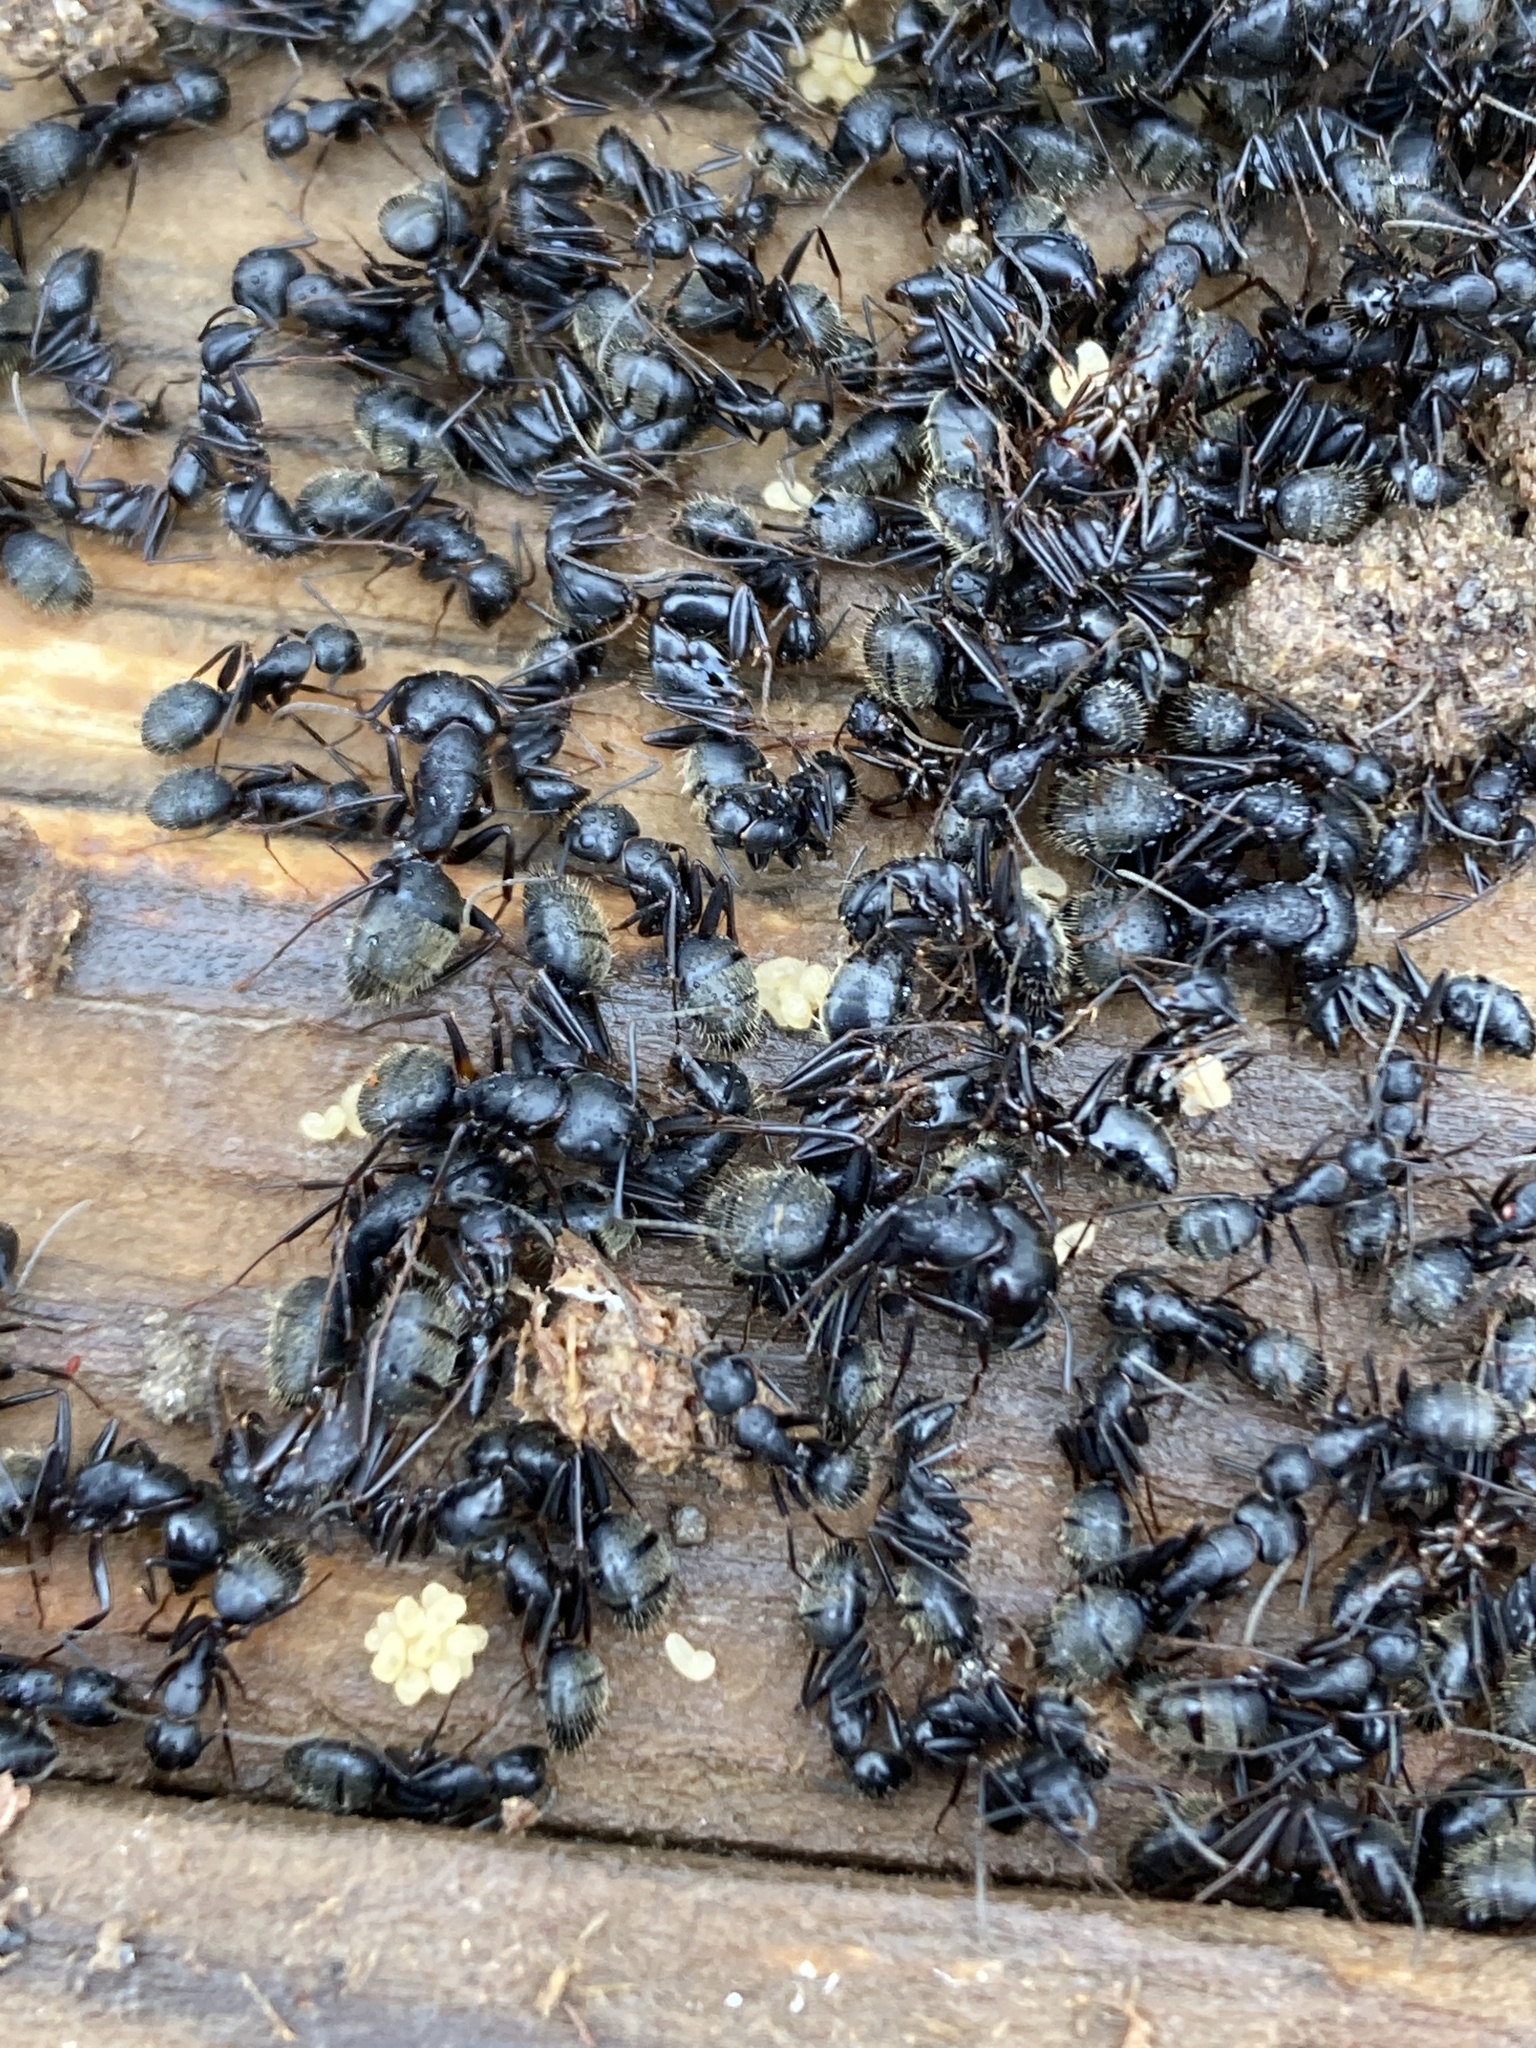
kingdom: Animalia
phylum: Arthropoda
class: Insecta
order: Hymenoptera
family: Formicidae
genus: Camponotus
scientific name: Camponotus pennsylvanicus
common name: Black carpenter ant
